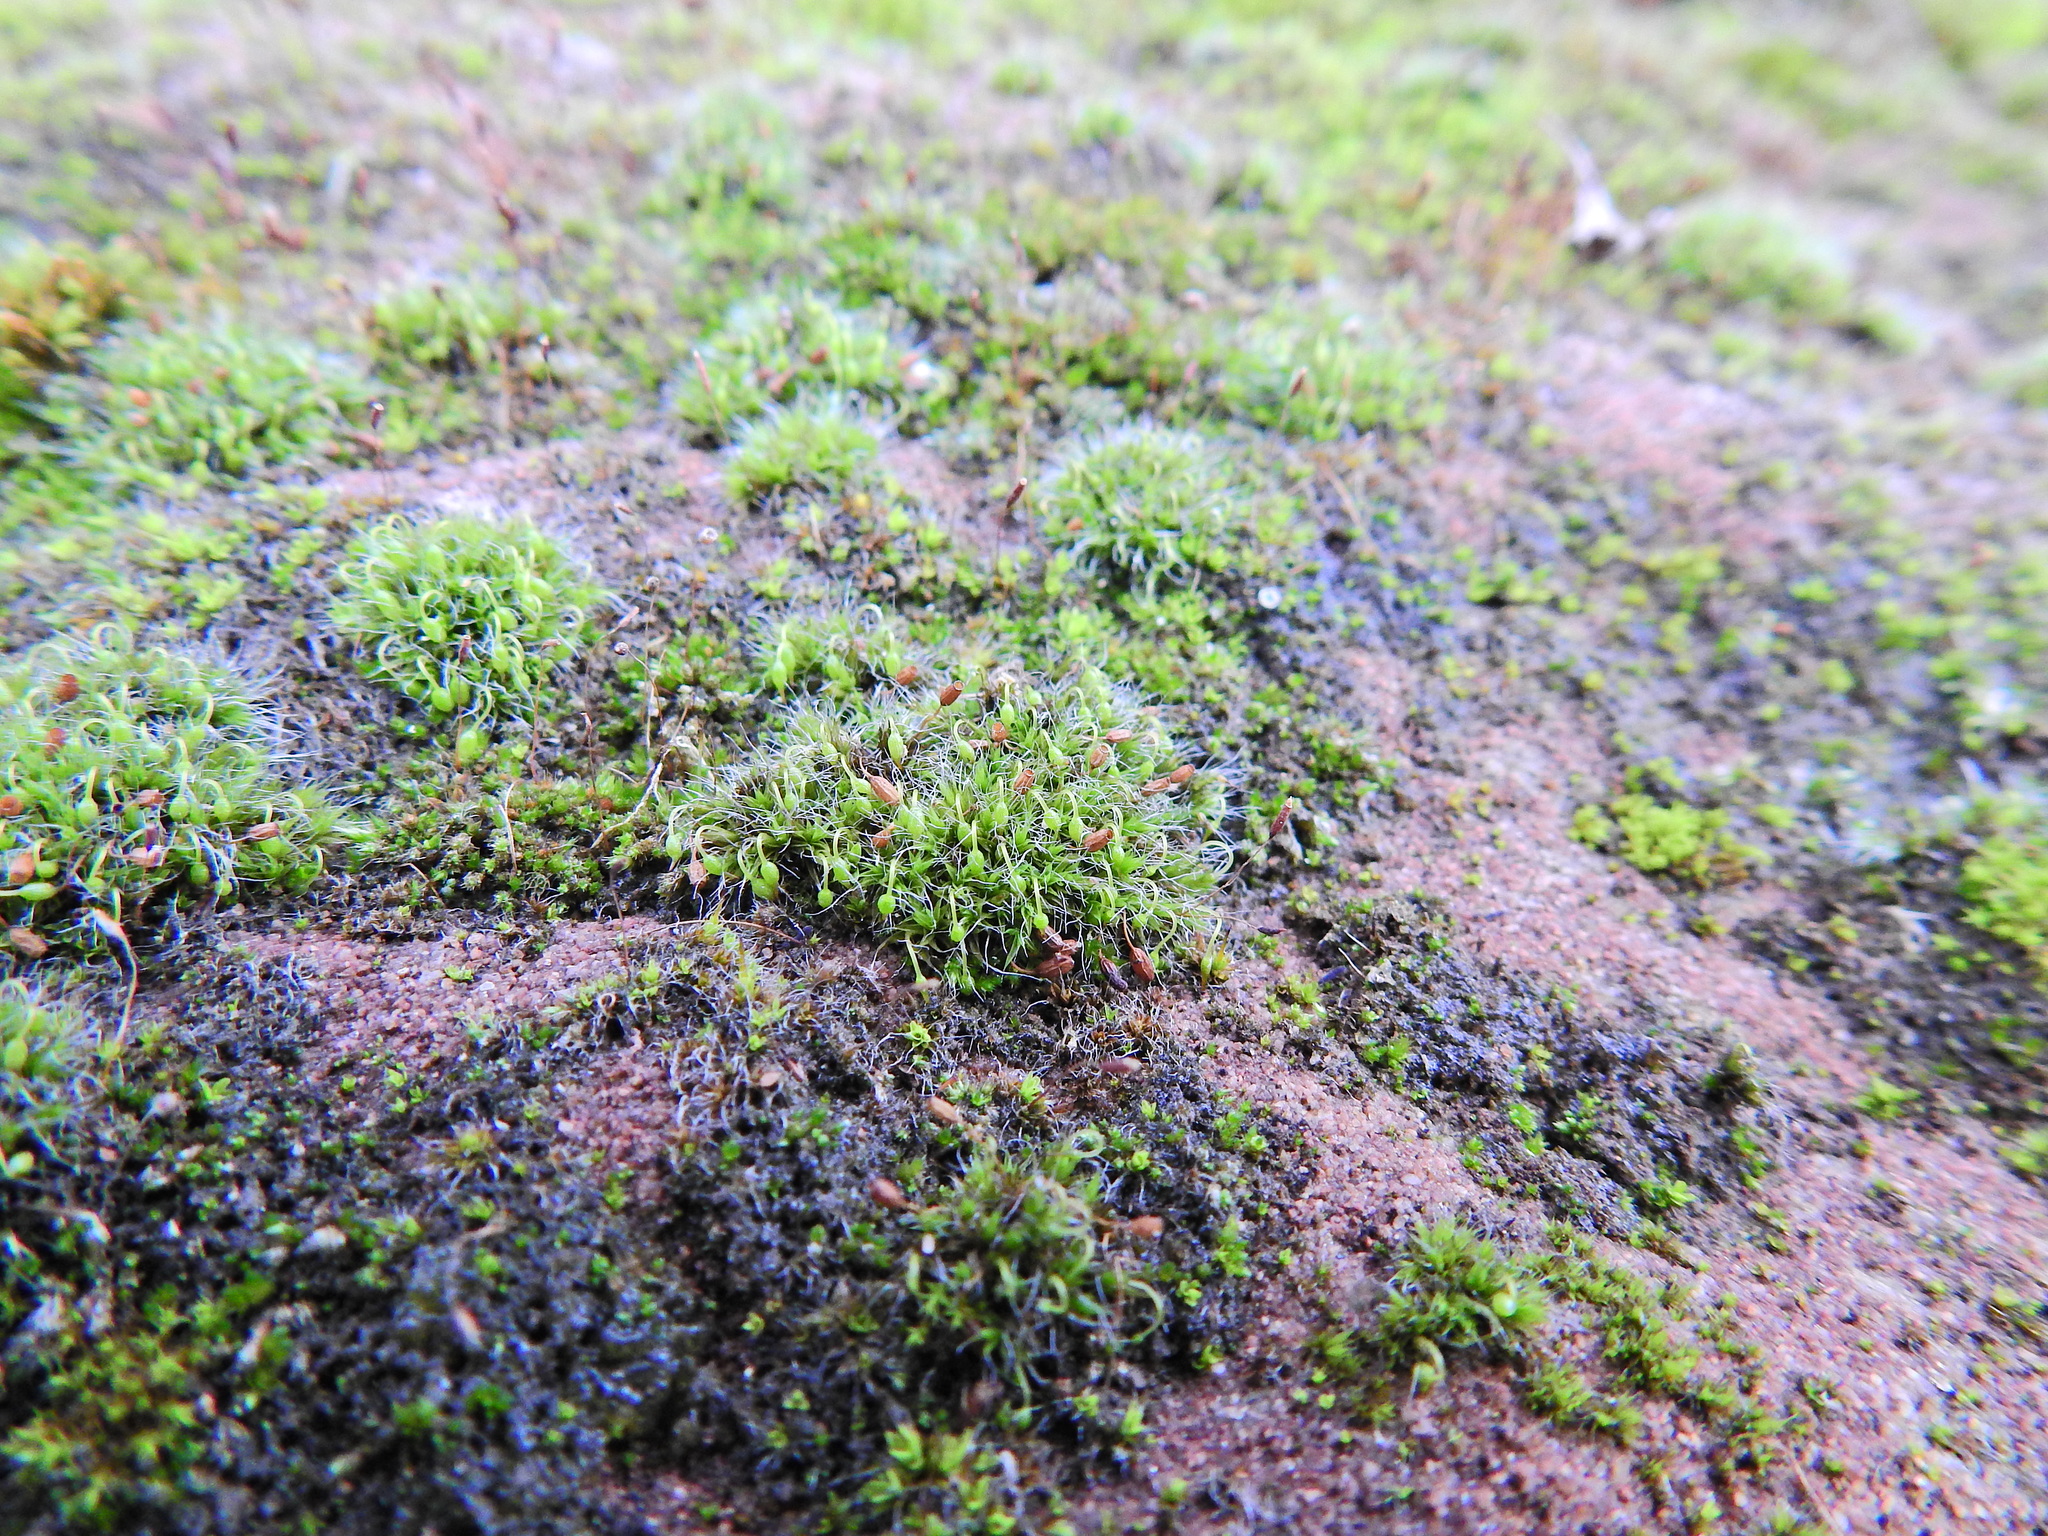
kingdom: Plantae
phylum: Bryophyta
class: Bryopsida
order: Grimmiales
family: Grimmiaceae
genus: Grimmia
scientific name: Grimmia pulvinata
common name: Grey-cushioned grimmia
